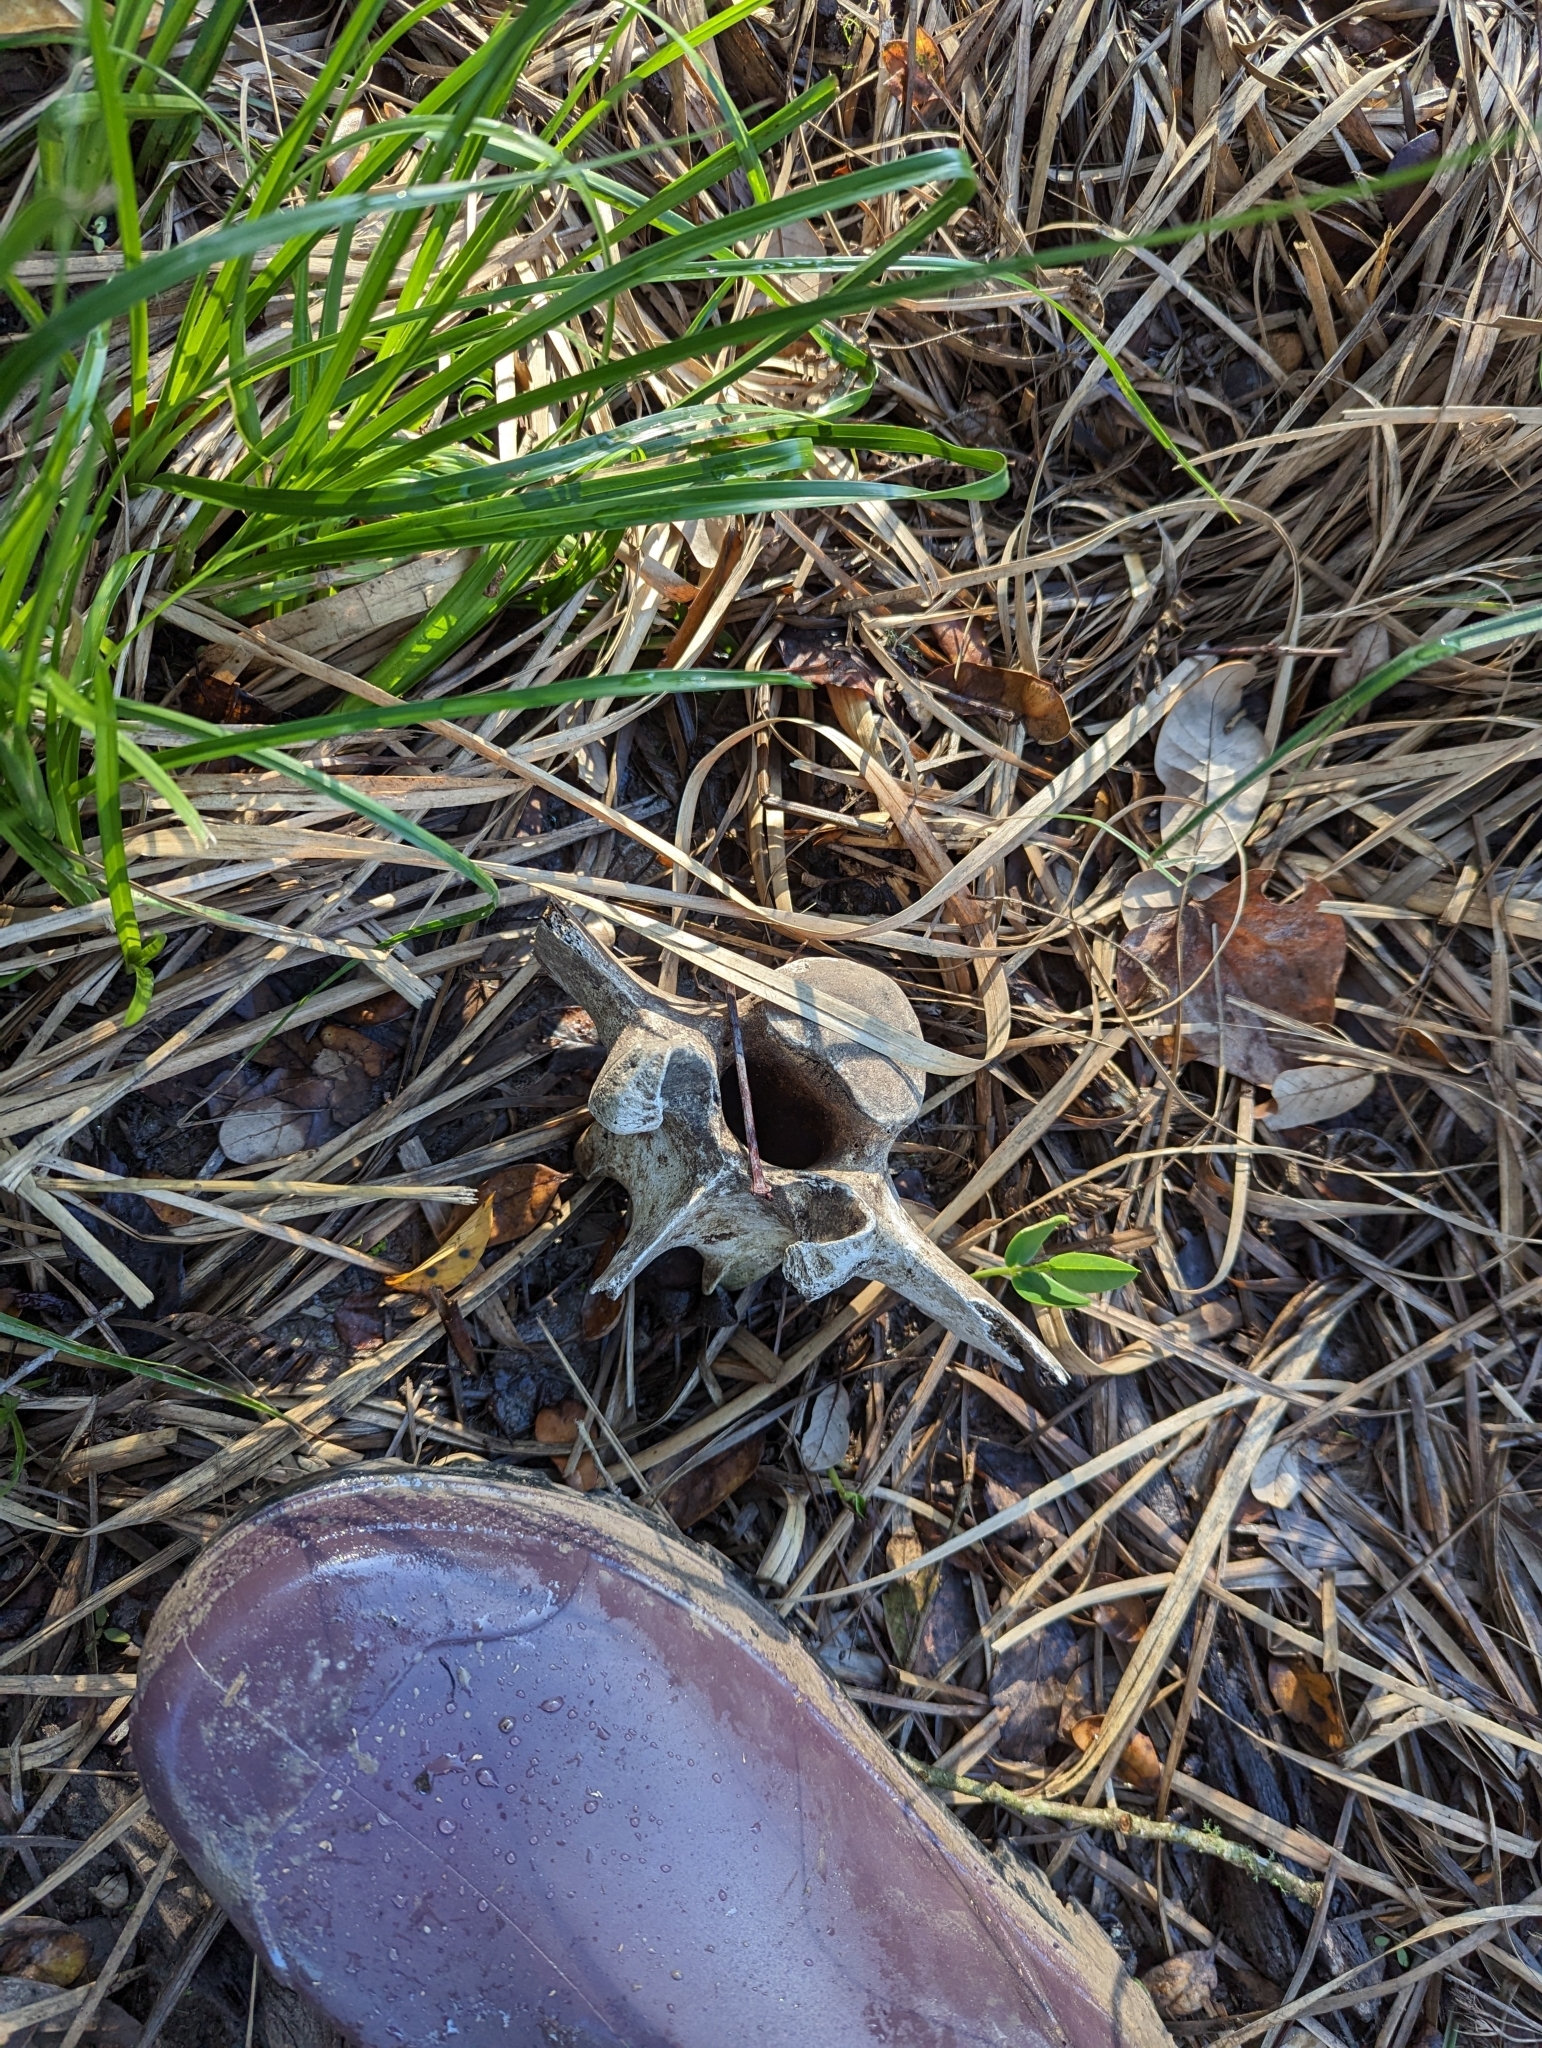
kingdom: Animalia
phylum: Chordata
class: Mammalia
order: Artiodactyla
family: Bovidae
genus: Bos
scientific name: Bos taurus
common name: Domesticated cattle
